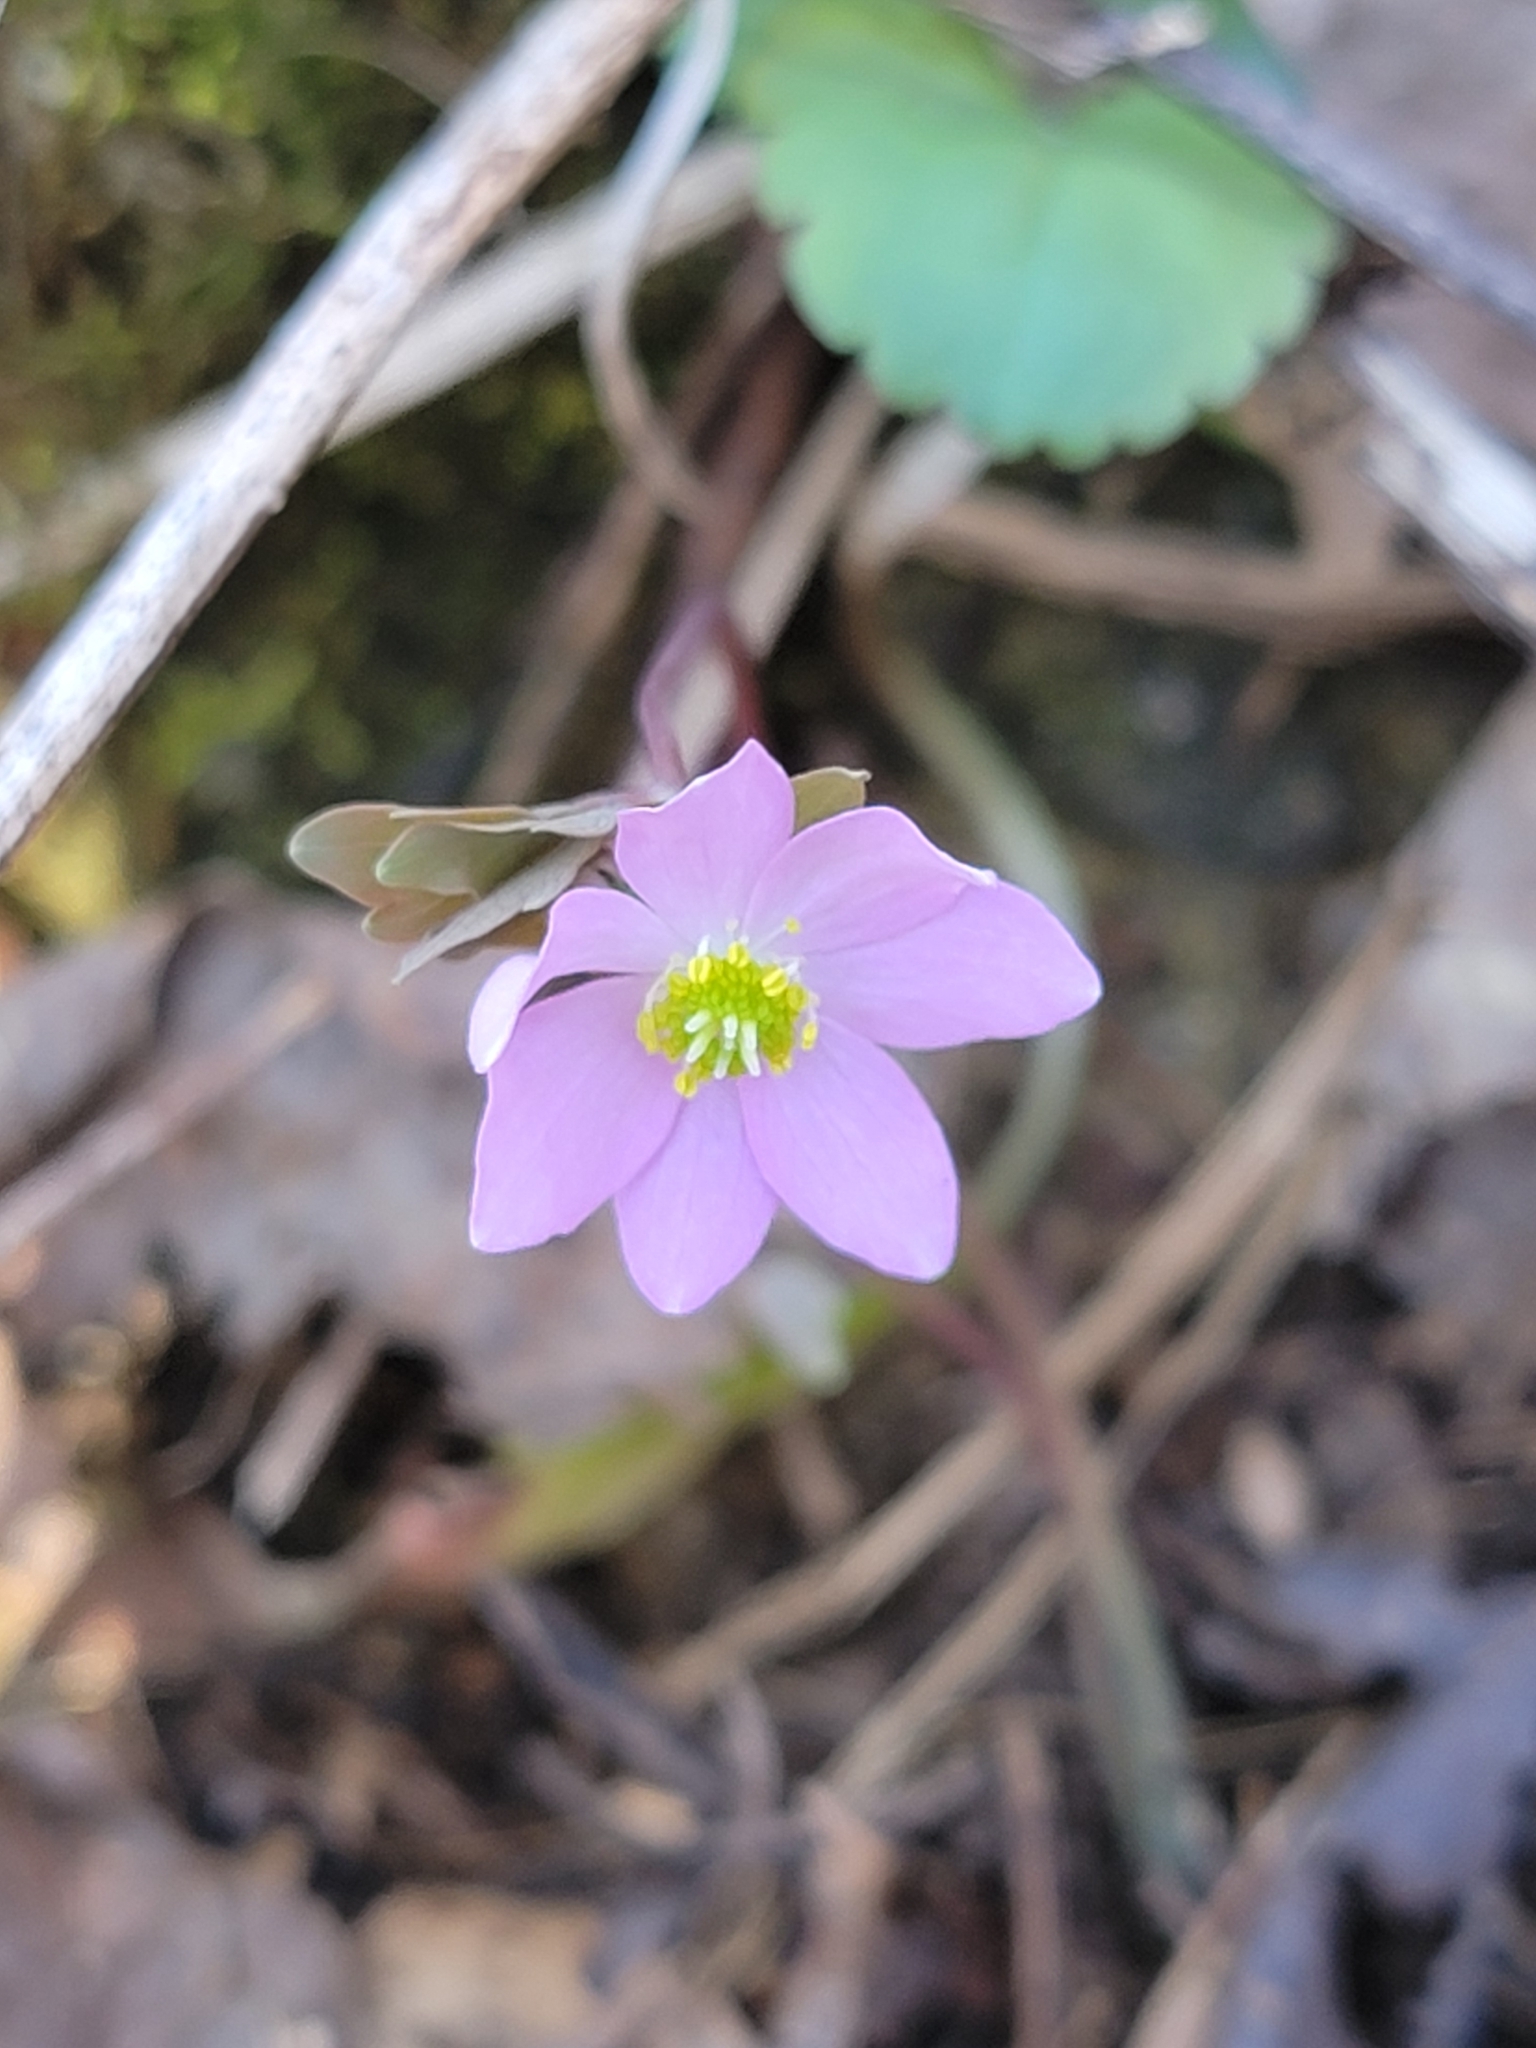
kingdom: Plantae
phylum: Tracheophyta
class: Magnoliopsida
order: Ranunculales
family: Ranunculaceae
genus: Thalictrum
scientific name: Thalictrum thalictroides
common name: Rue-anemone
